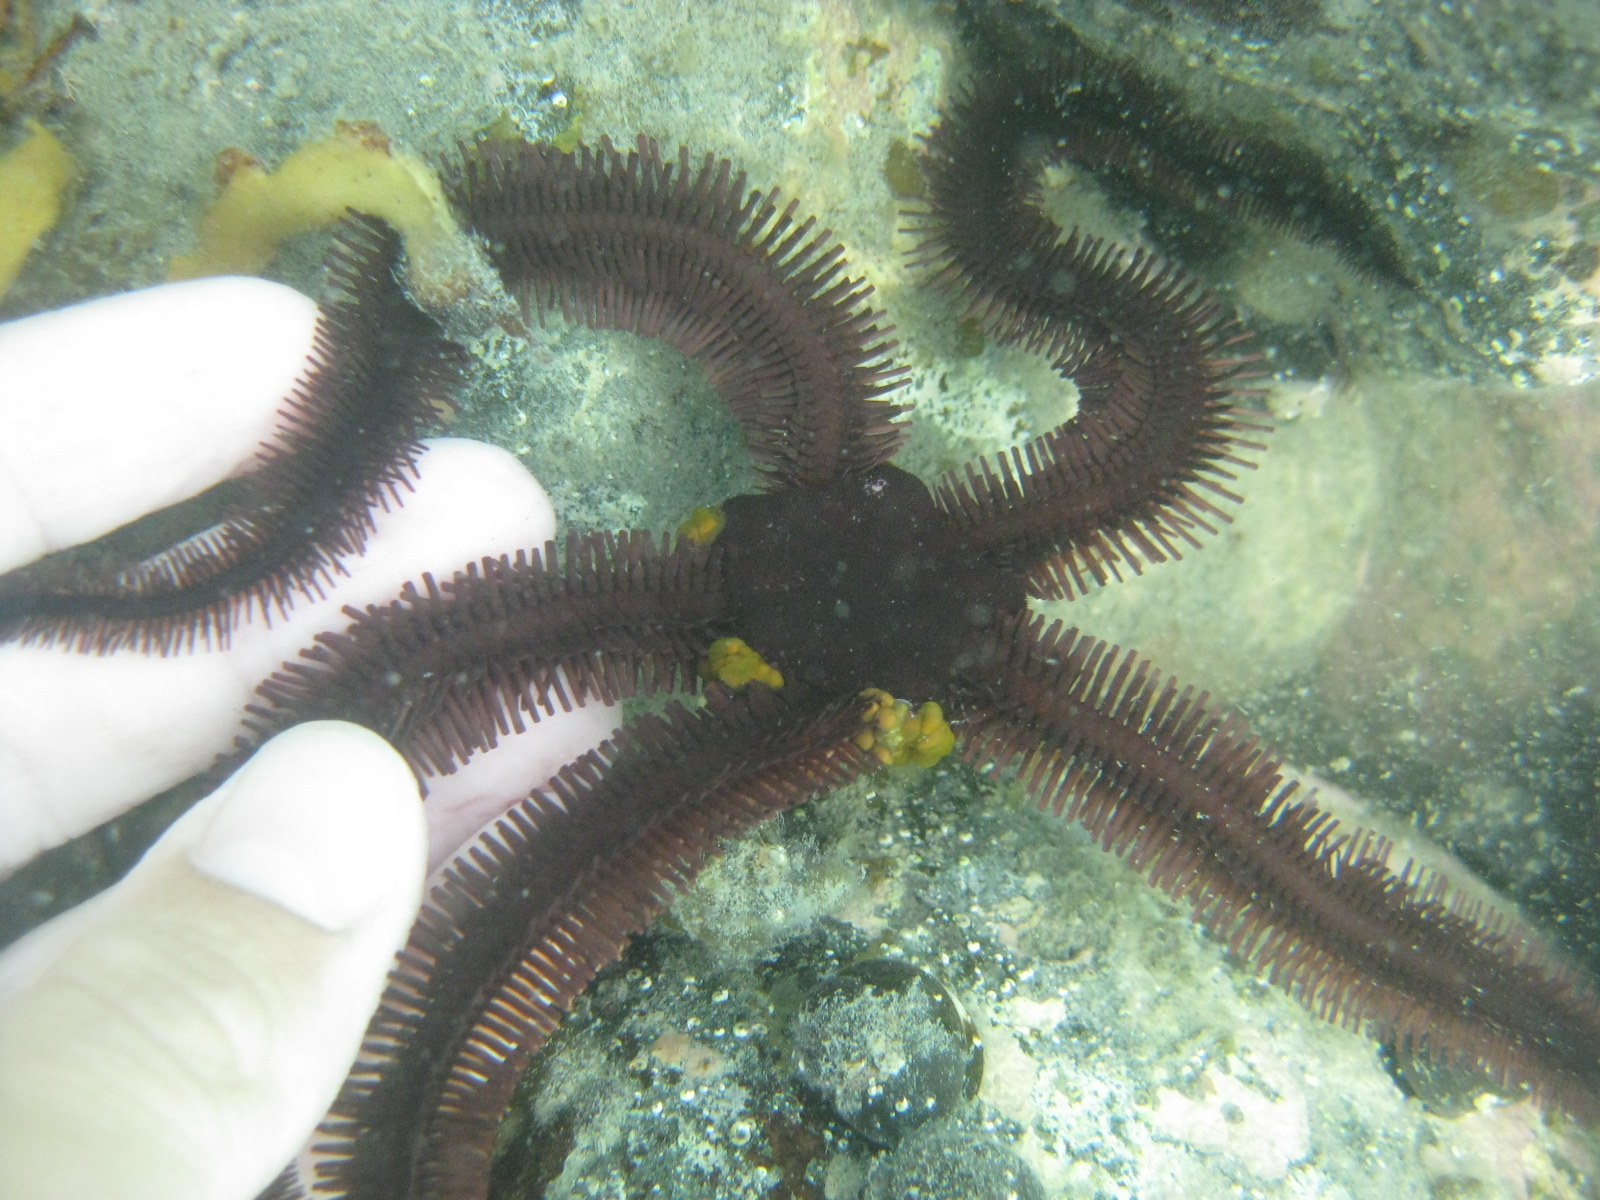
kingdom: Animalia
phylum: Echinodermata
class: Ophiuroidea
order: Ophiacanthida
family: Ophiopteridae
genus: Ophiopteris
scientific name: Ophiopteris antipodum
